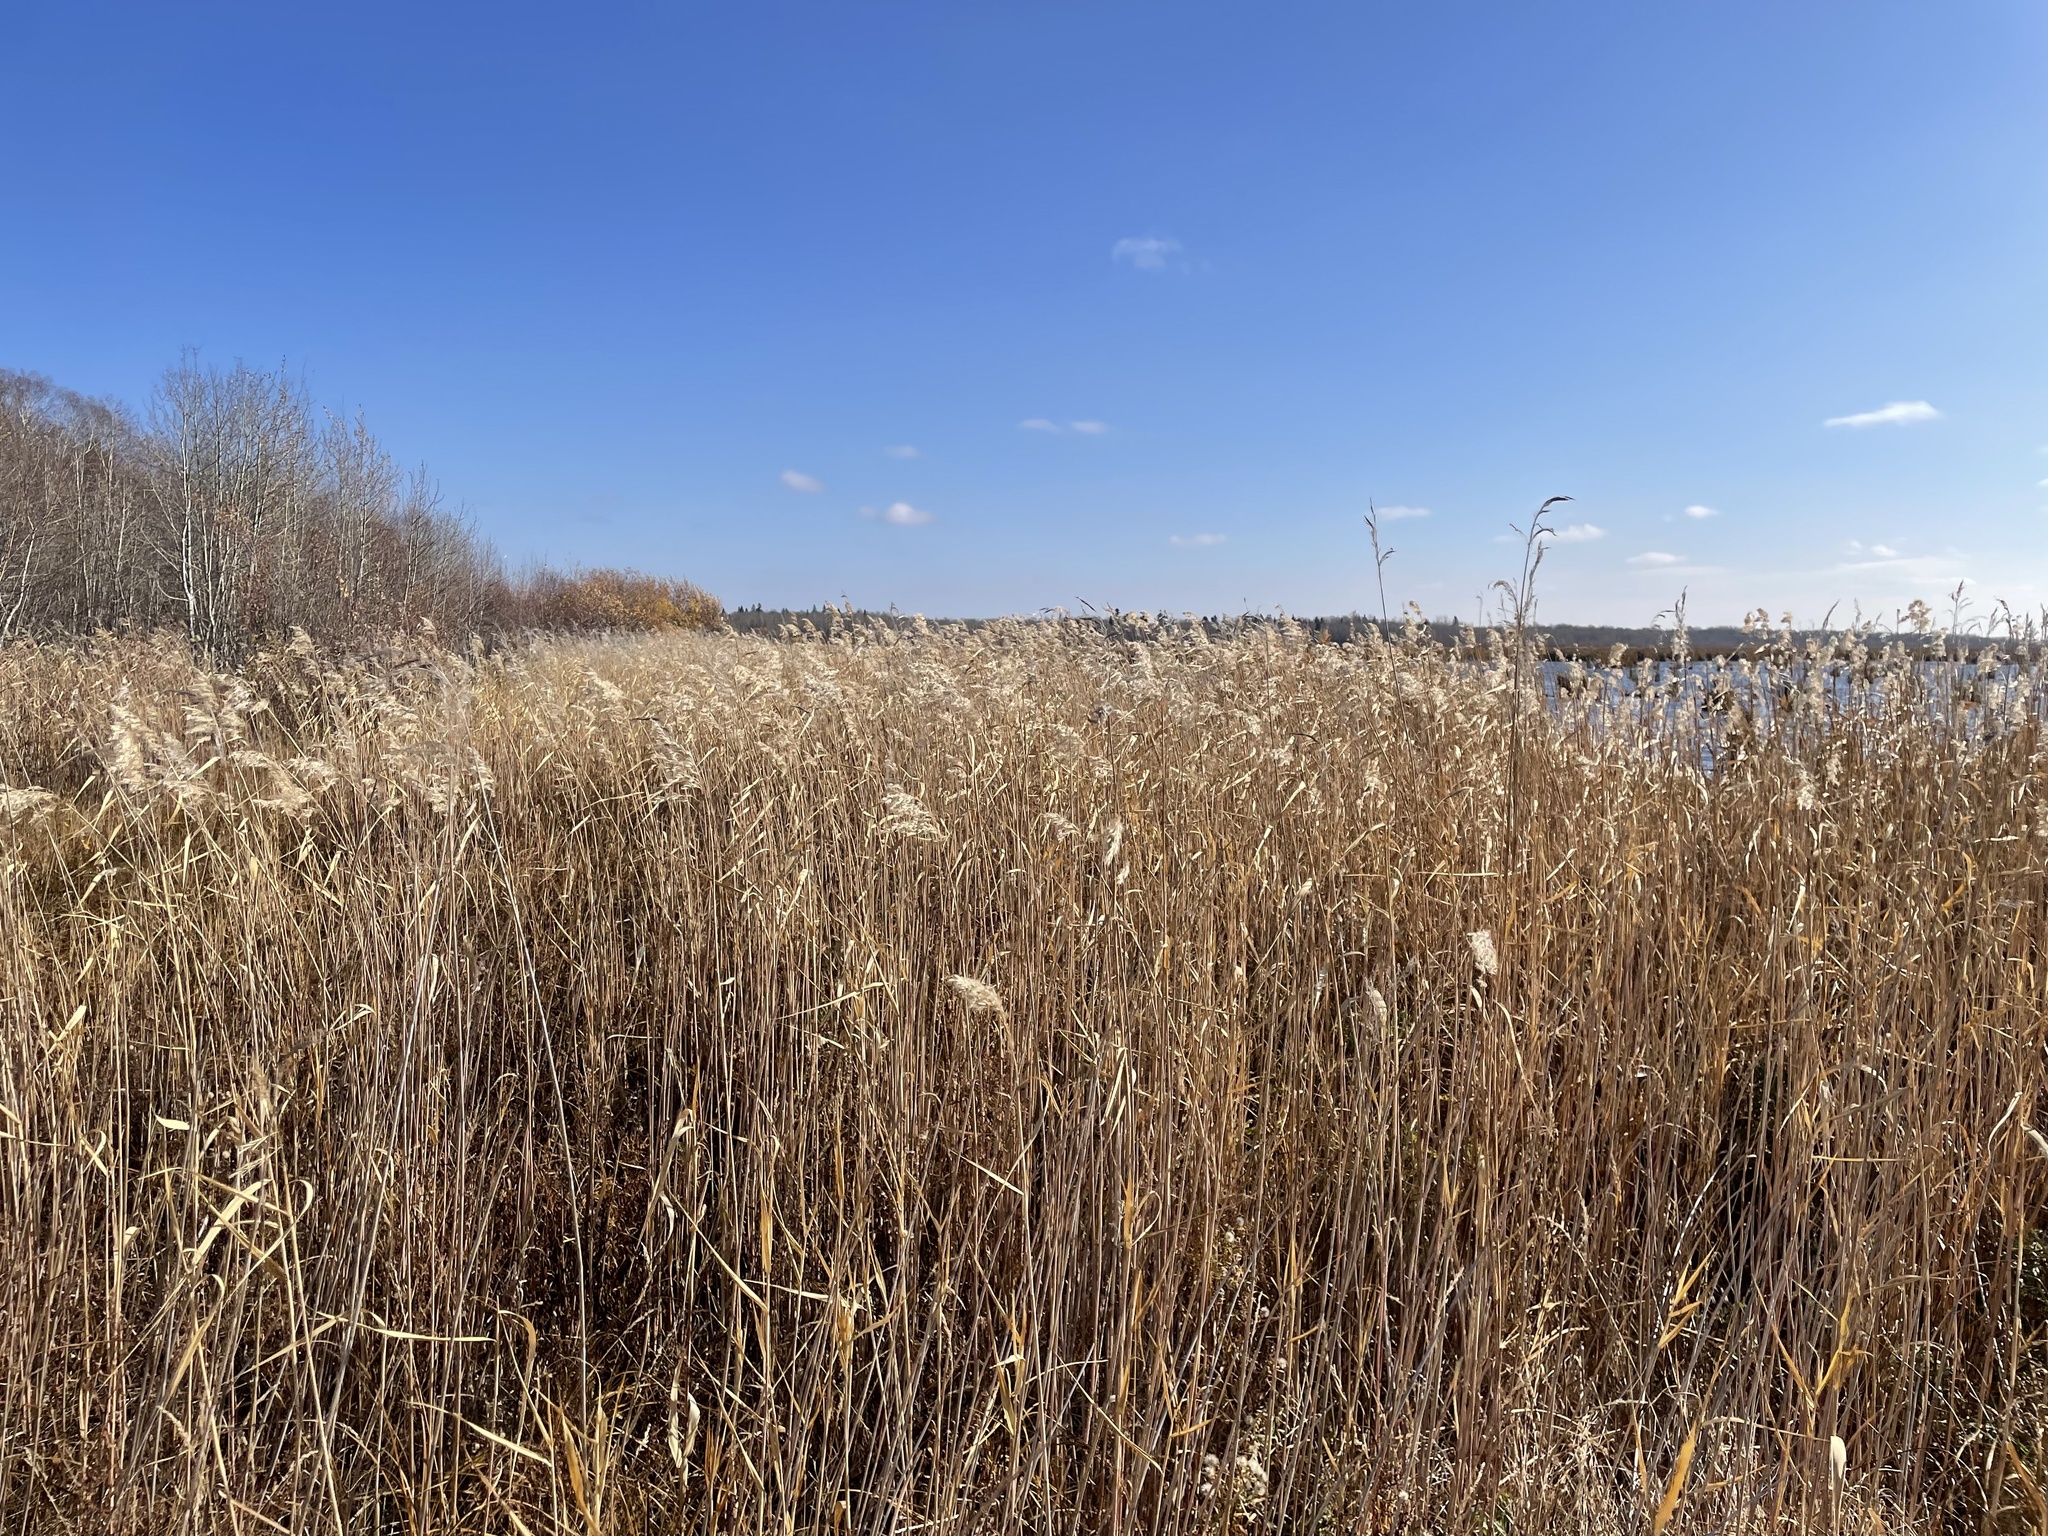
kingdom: Plantae
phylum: Tracheophyta
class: Liliopsida
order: Poales
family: Poaceae
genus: Phragmites
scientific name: Phragmites australis
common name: Common reed
